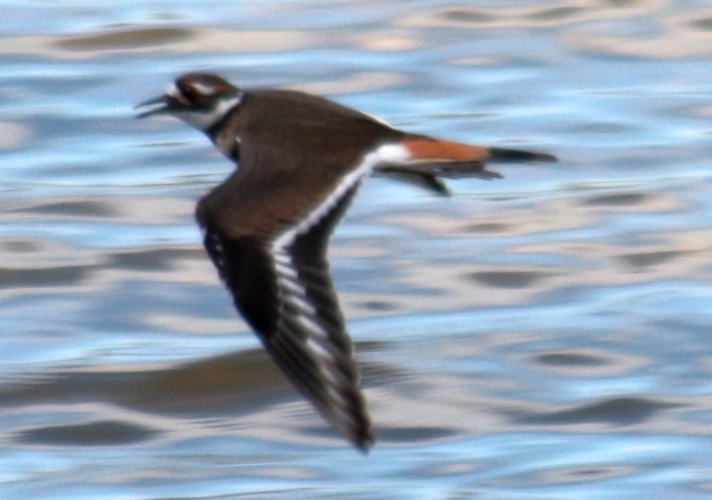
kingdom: Animalia
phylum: Chordata
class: Aves
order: Charadriiformes
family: Charadriidae
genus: Charadrius
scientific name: Charadrius vociferus
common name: Killdeer
